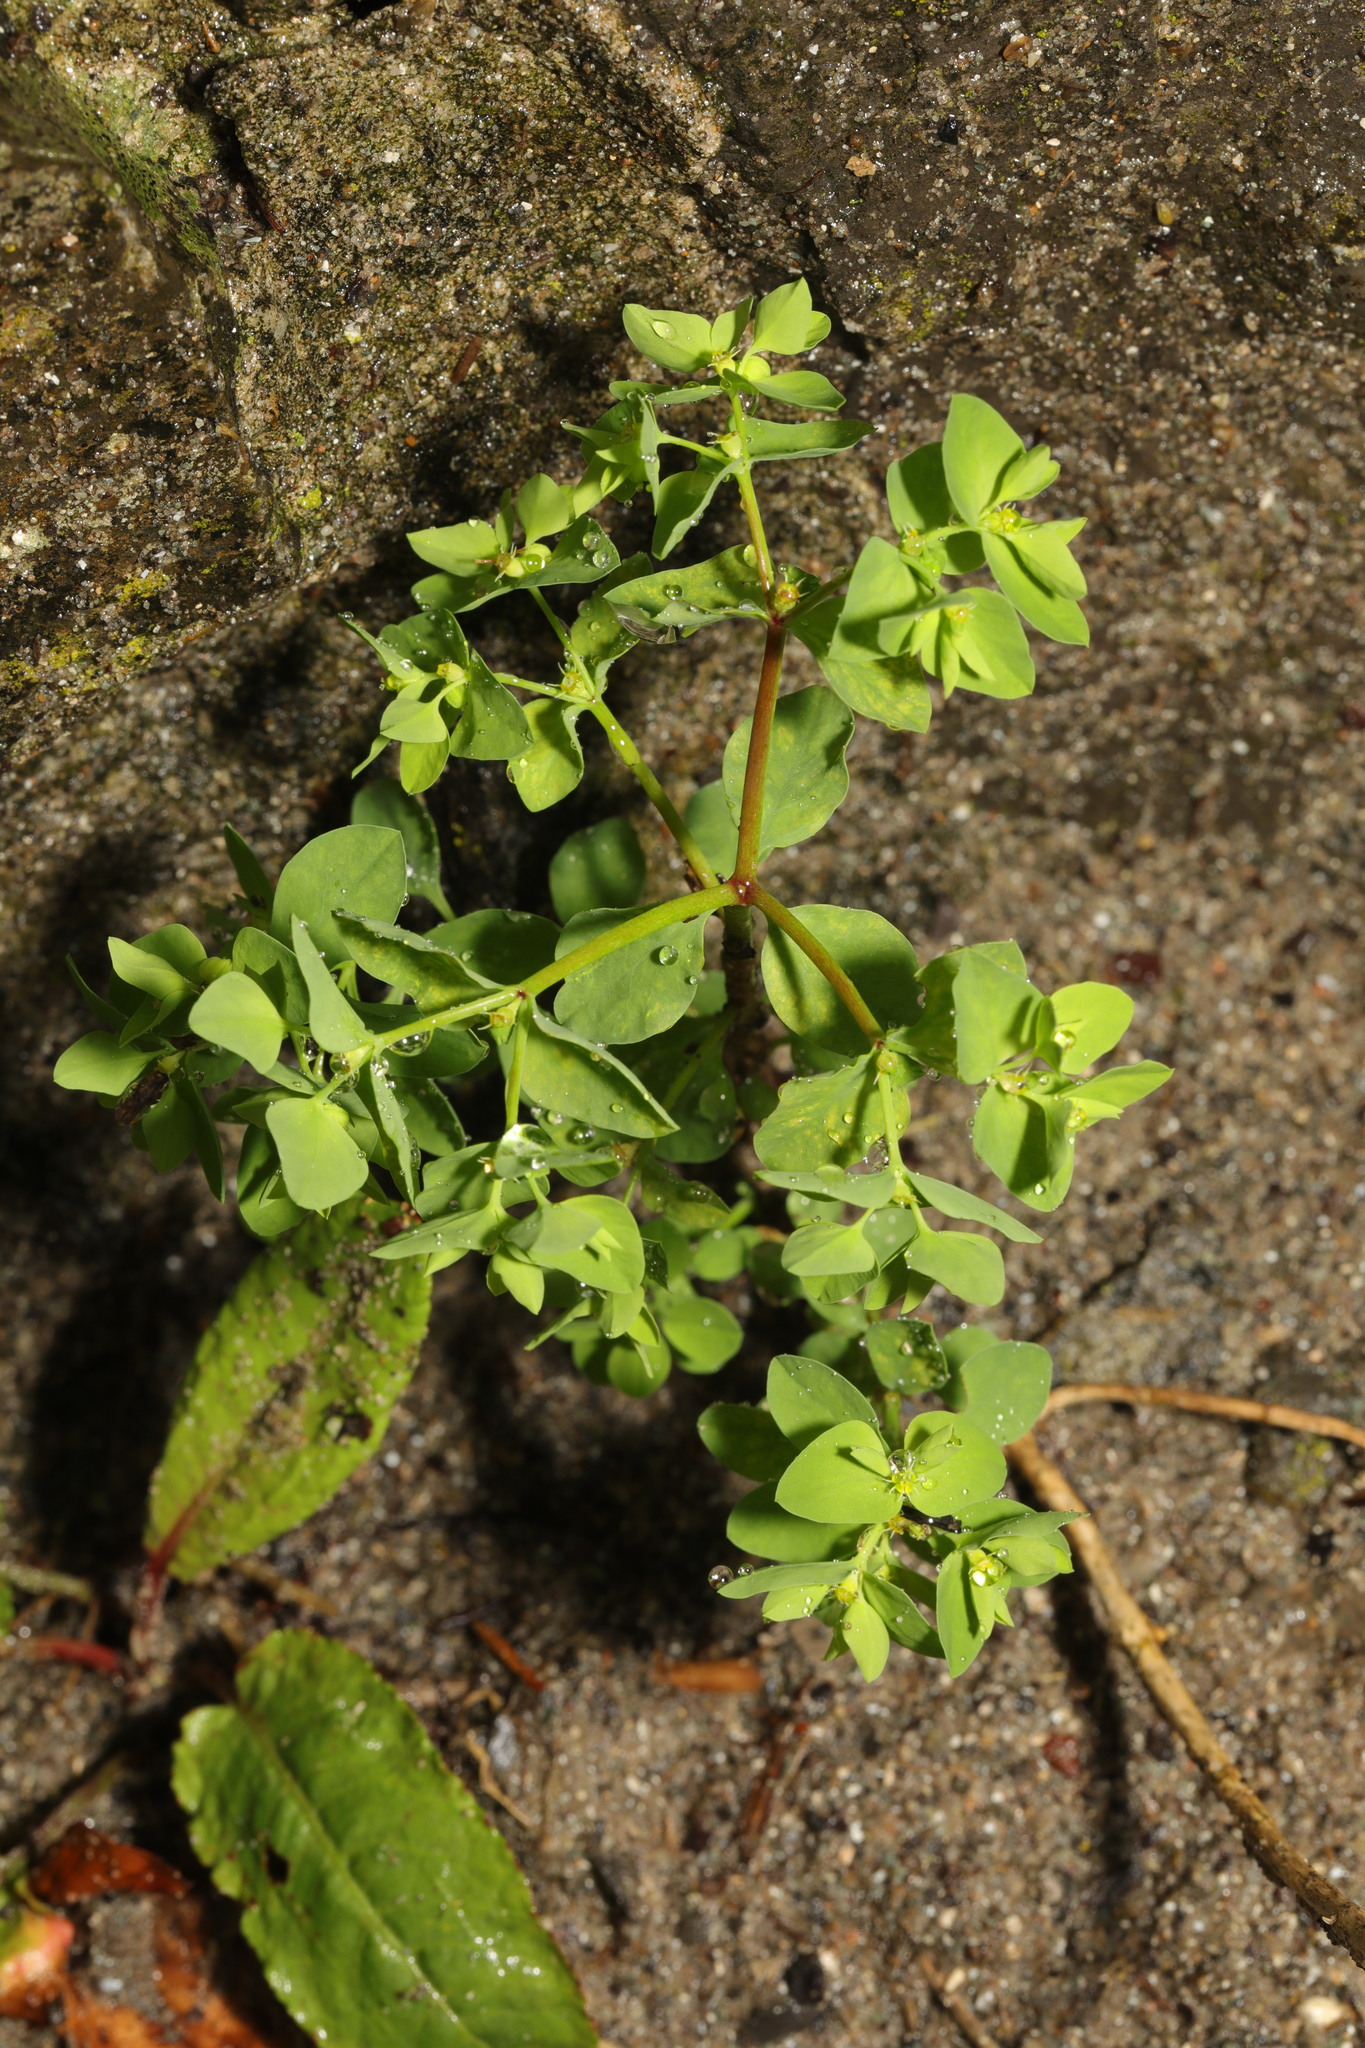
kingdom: Plantae
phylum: Tracheophyta
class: Magnoliopsida
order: Malpighiales
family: Euphorbiaceae
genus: Euphorbia
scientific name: Euphorbia peplus
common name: Petty spurge
